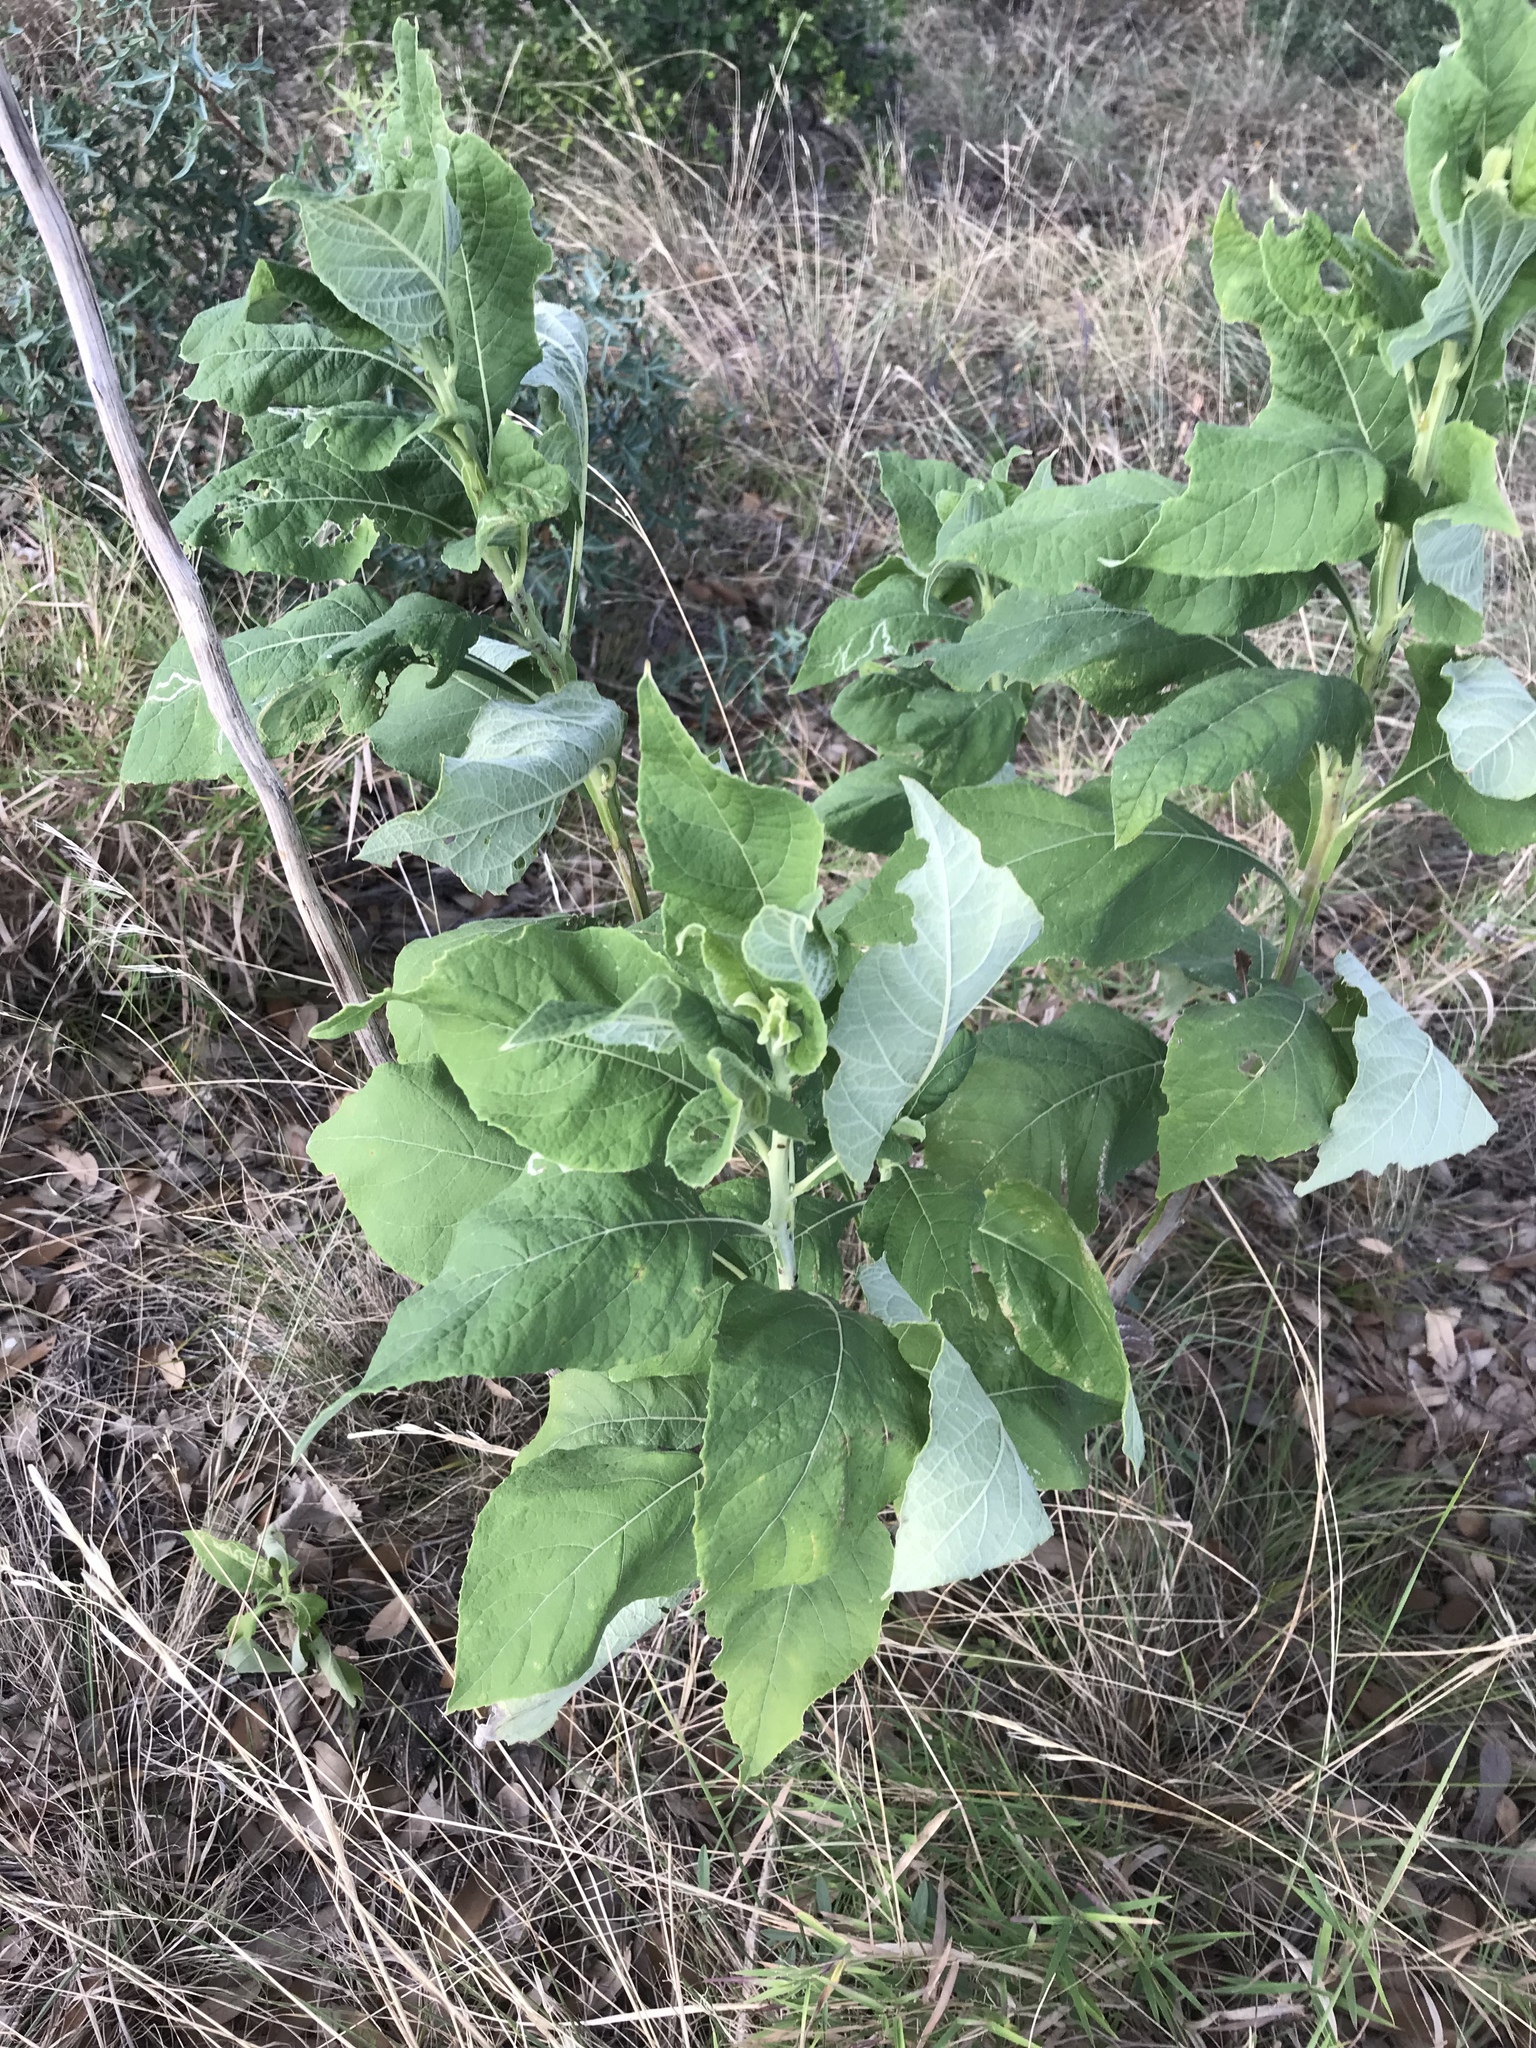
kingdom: Plantae
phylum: Tracheophyta
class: Magnoliopsida
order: Asterales
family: Asteraceae
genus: Verbesina
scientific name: Verbesina virginica
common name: Frostweed
